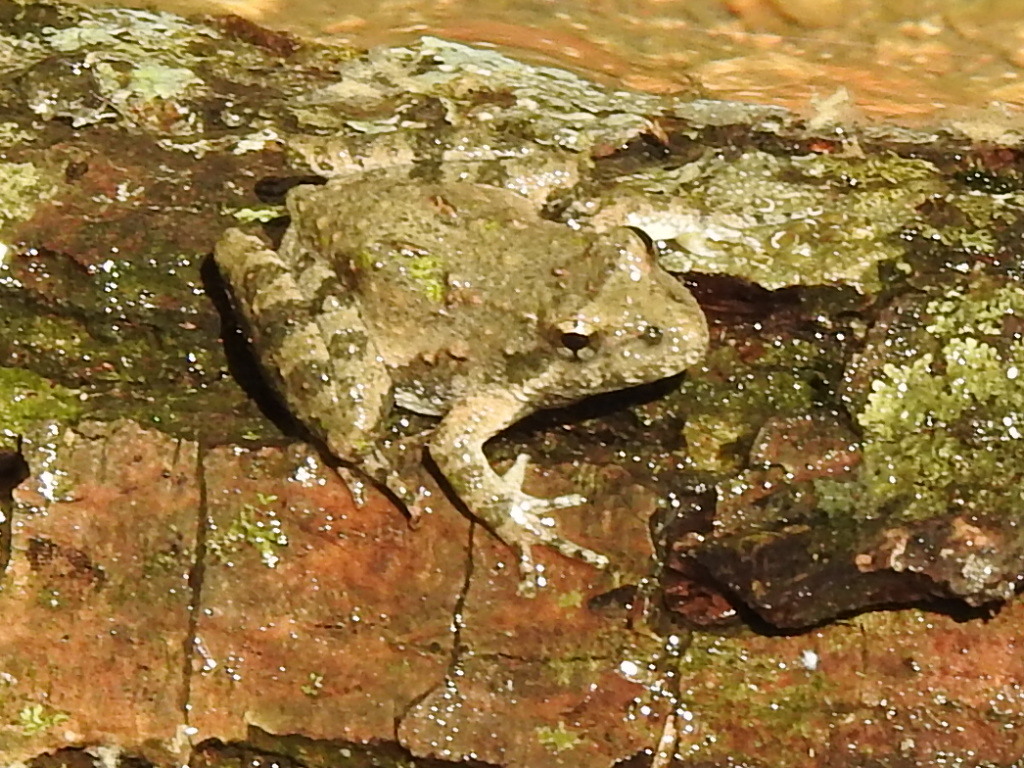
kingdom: Animalia
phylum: Chordata
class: Amphibia
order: Anura
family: Hylidae
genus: Acris
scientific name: Acris blanchardi
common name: Blanchard's cricket frog
